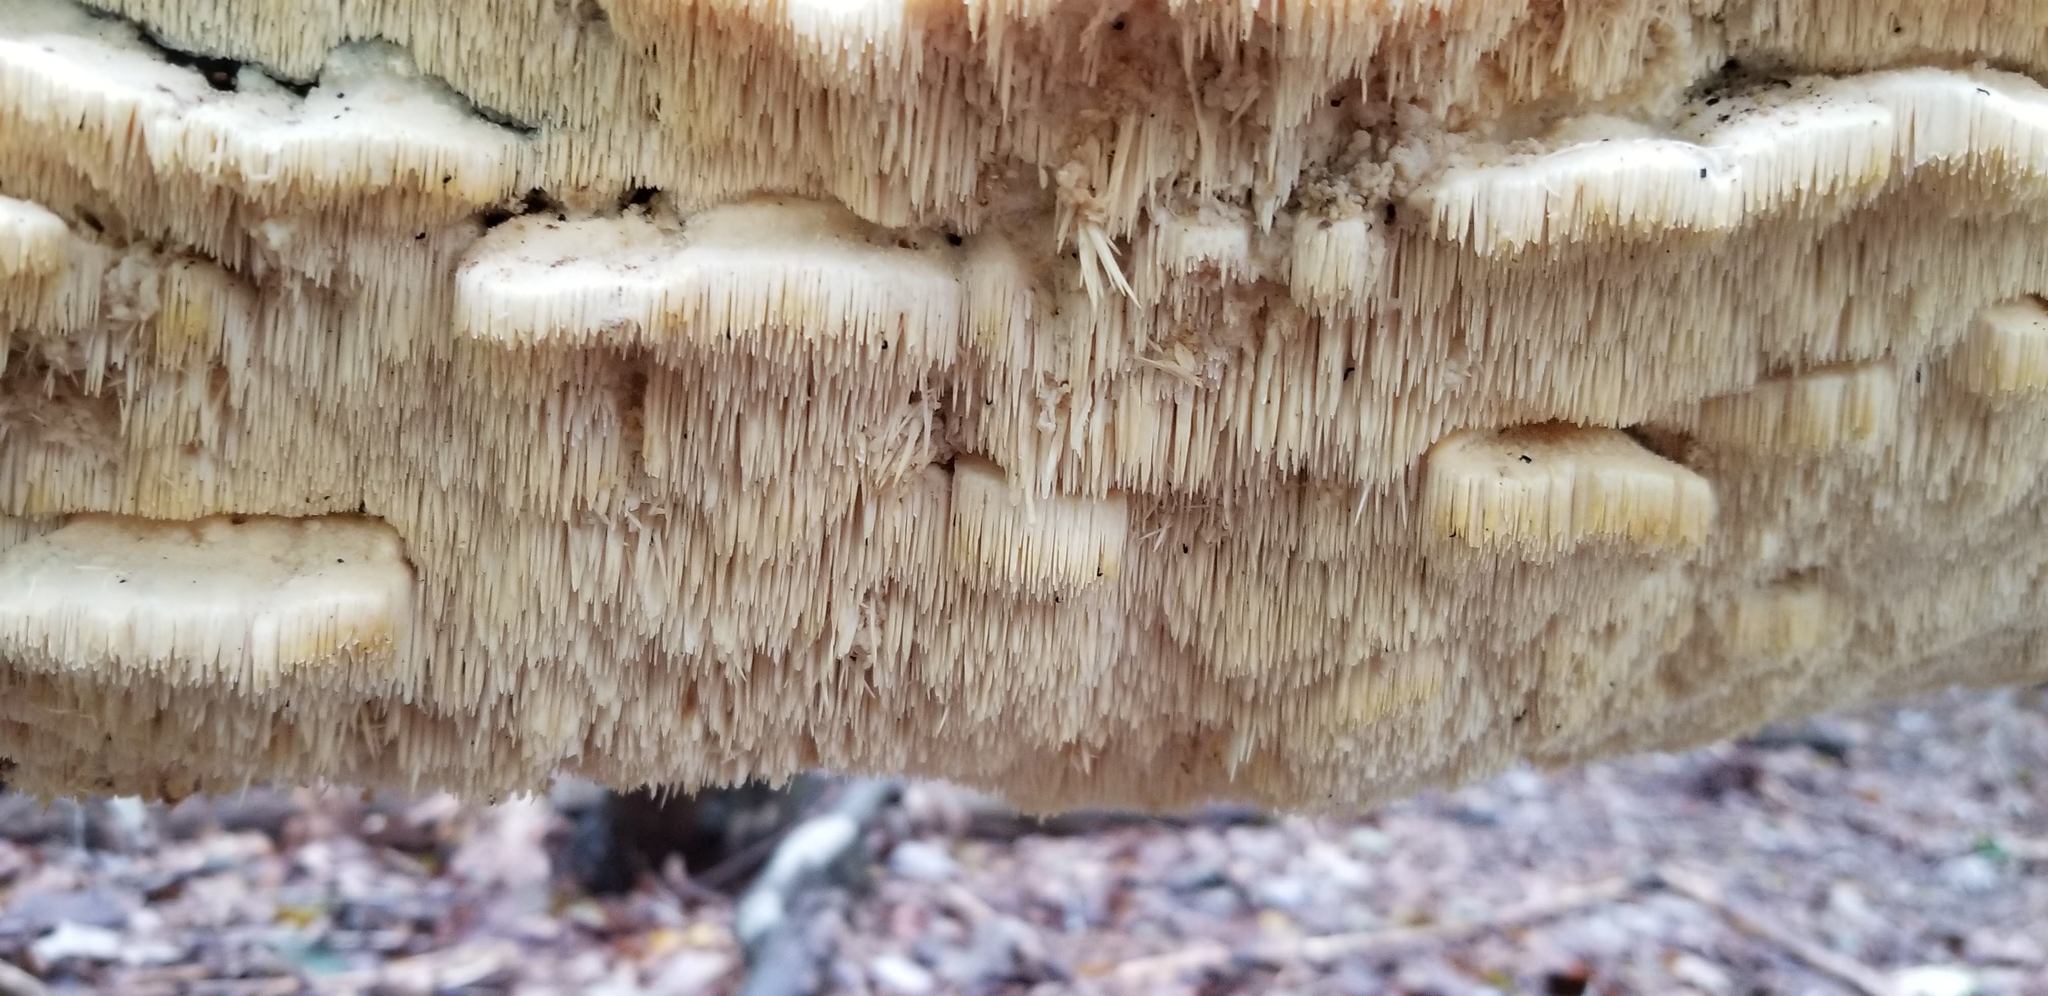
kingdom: Fungi
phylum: Basidiomycota
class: Agaricomycetes
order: Polyporales
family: Meruliaceae
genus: Irpiciporus
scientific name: Irpiciporus pachyodon
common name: Marshmallow polypore
